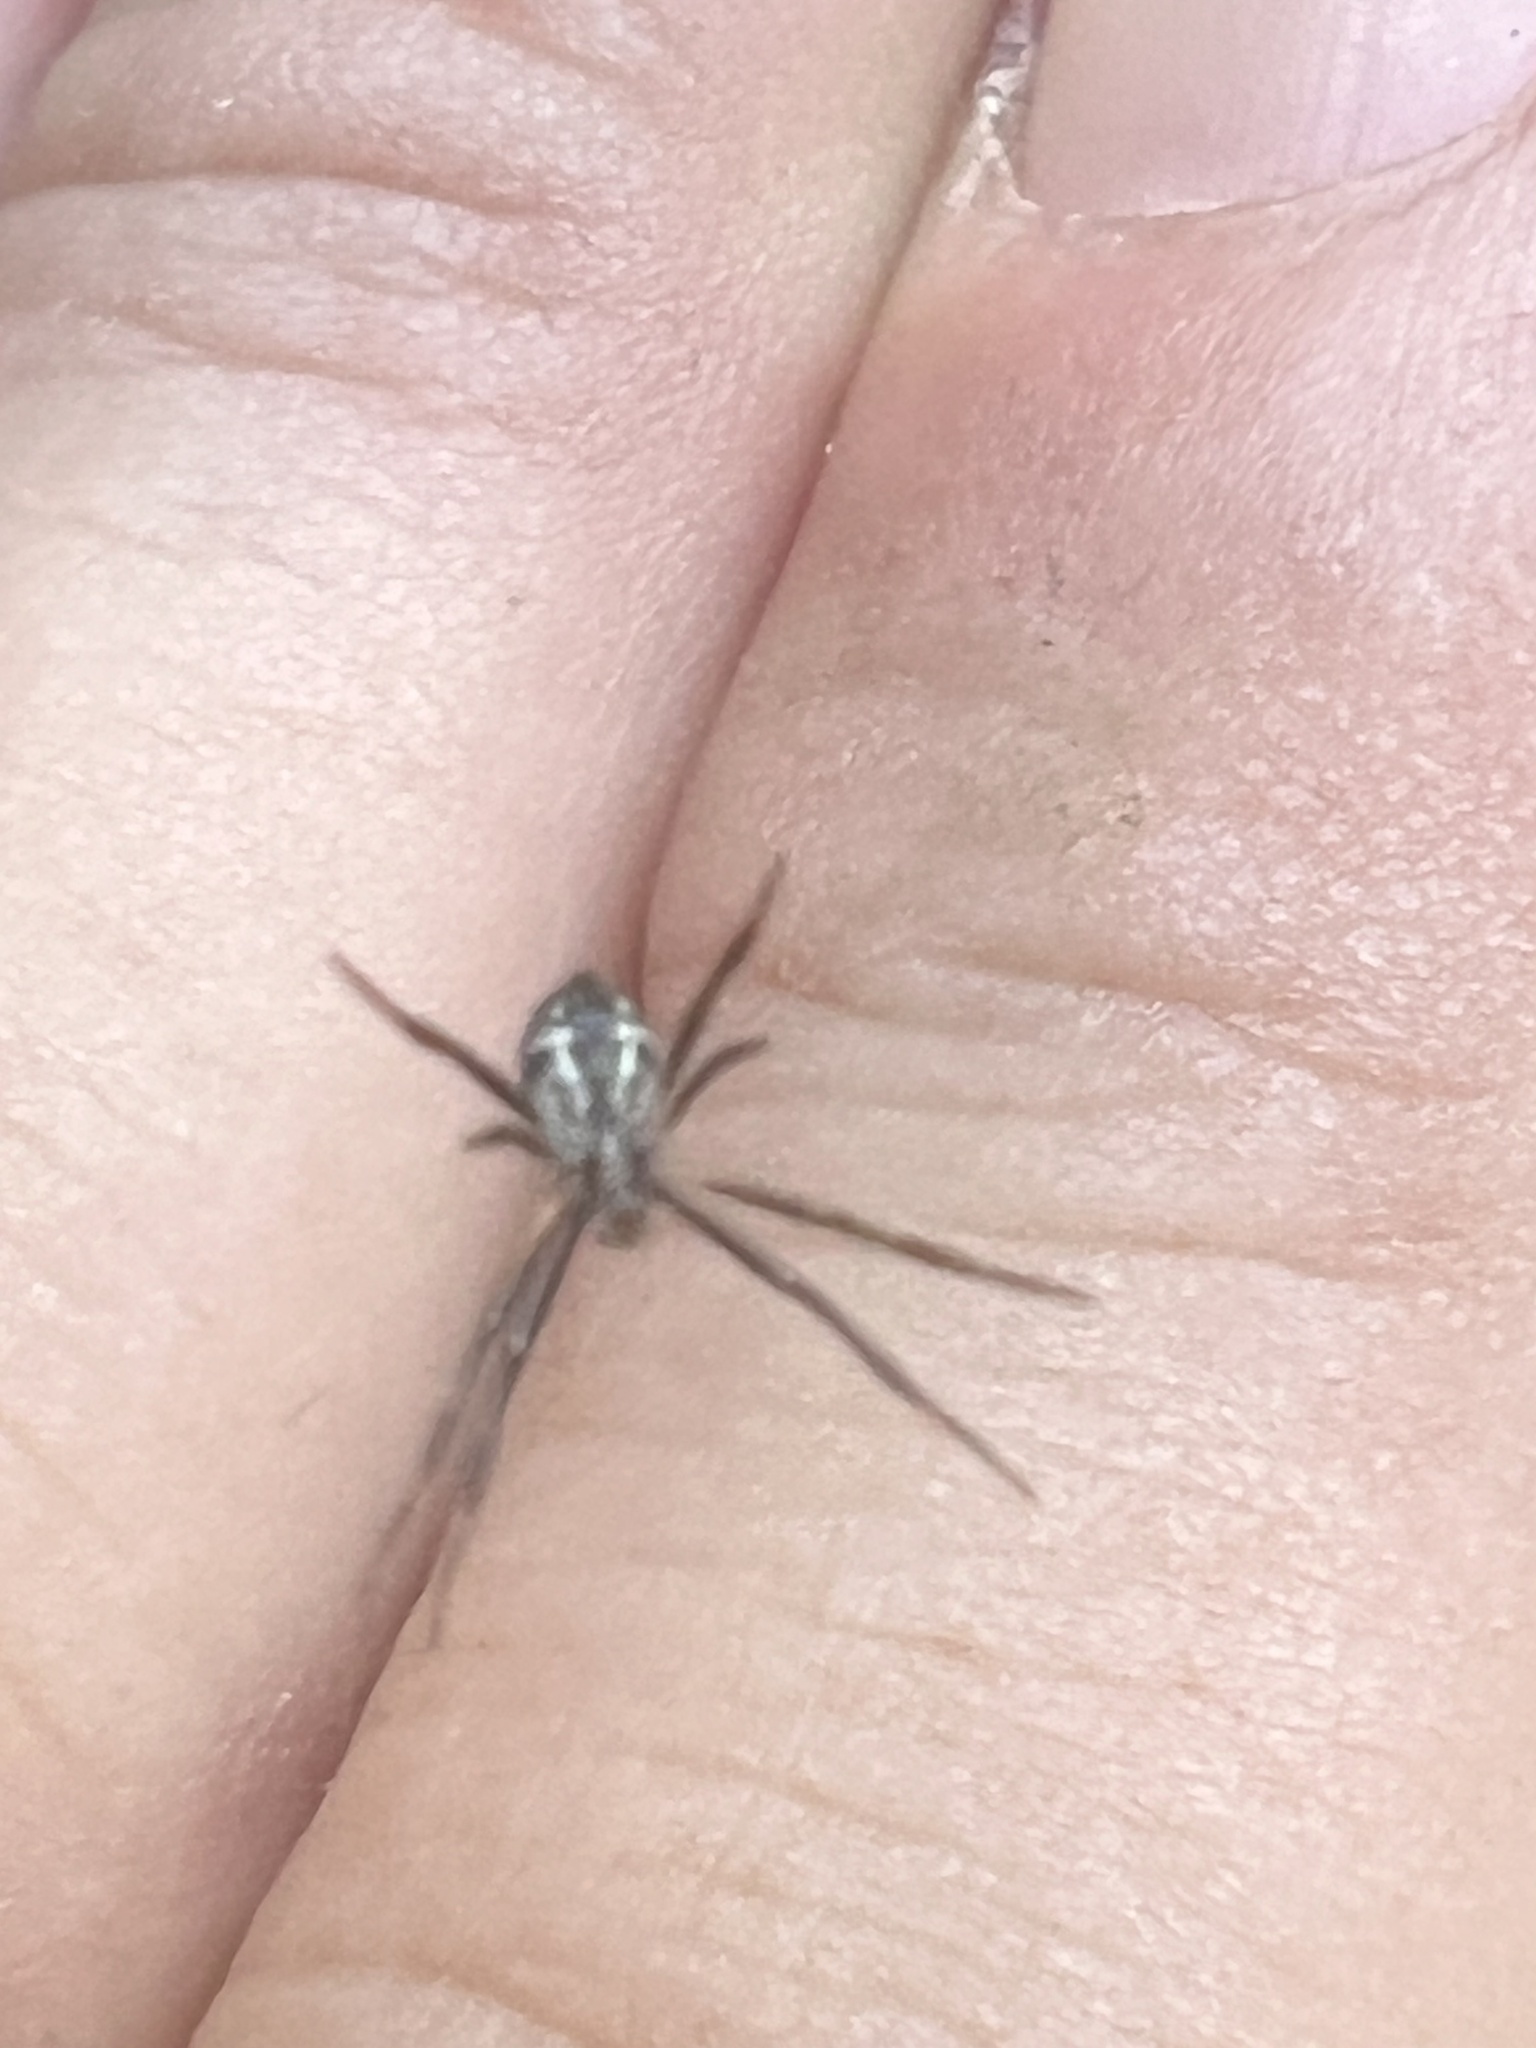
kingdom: Animalia
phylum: Arthropoda
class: Arachnida
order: Araneae
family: Araneidae
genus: Argiope
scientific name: Argiope appensa
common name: Garden spider
